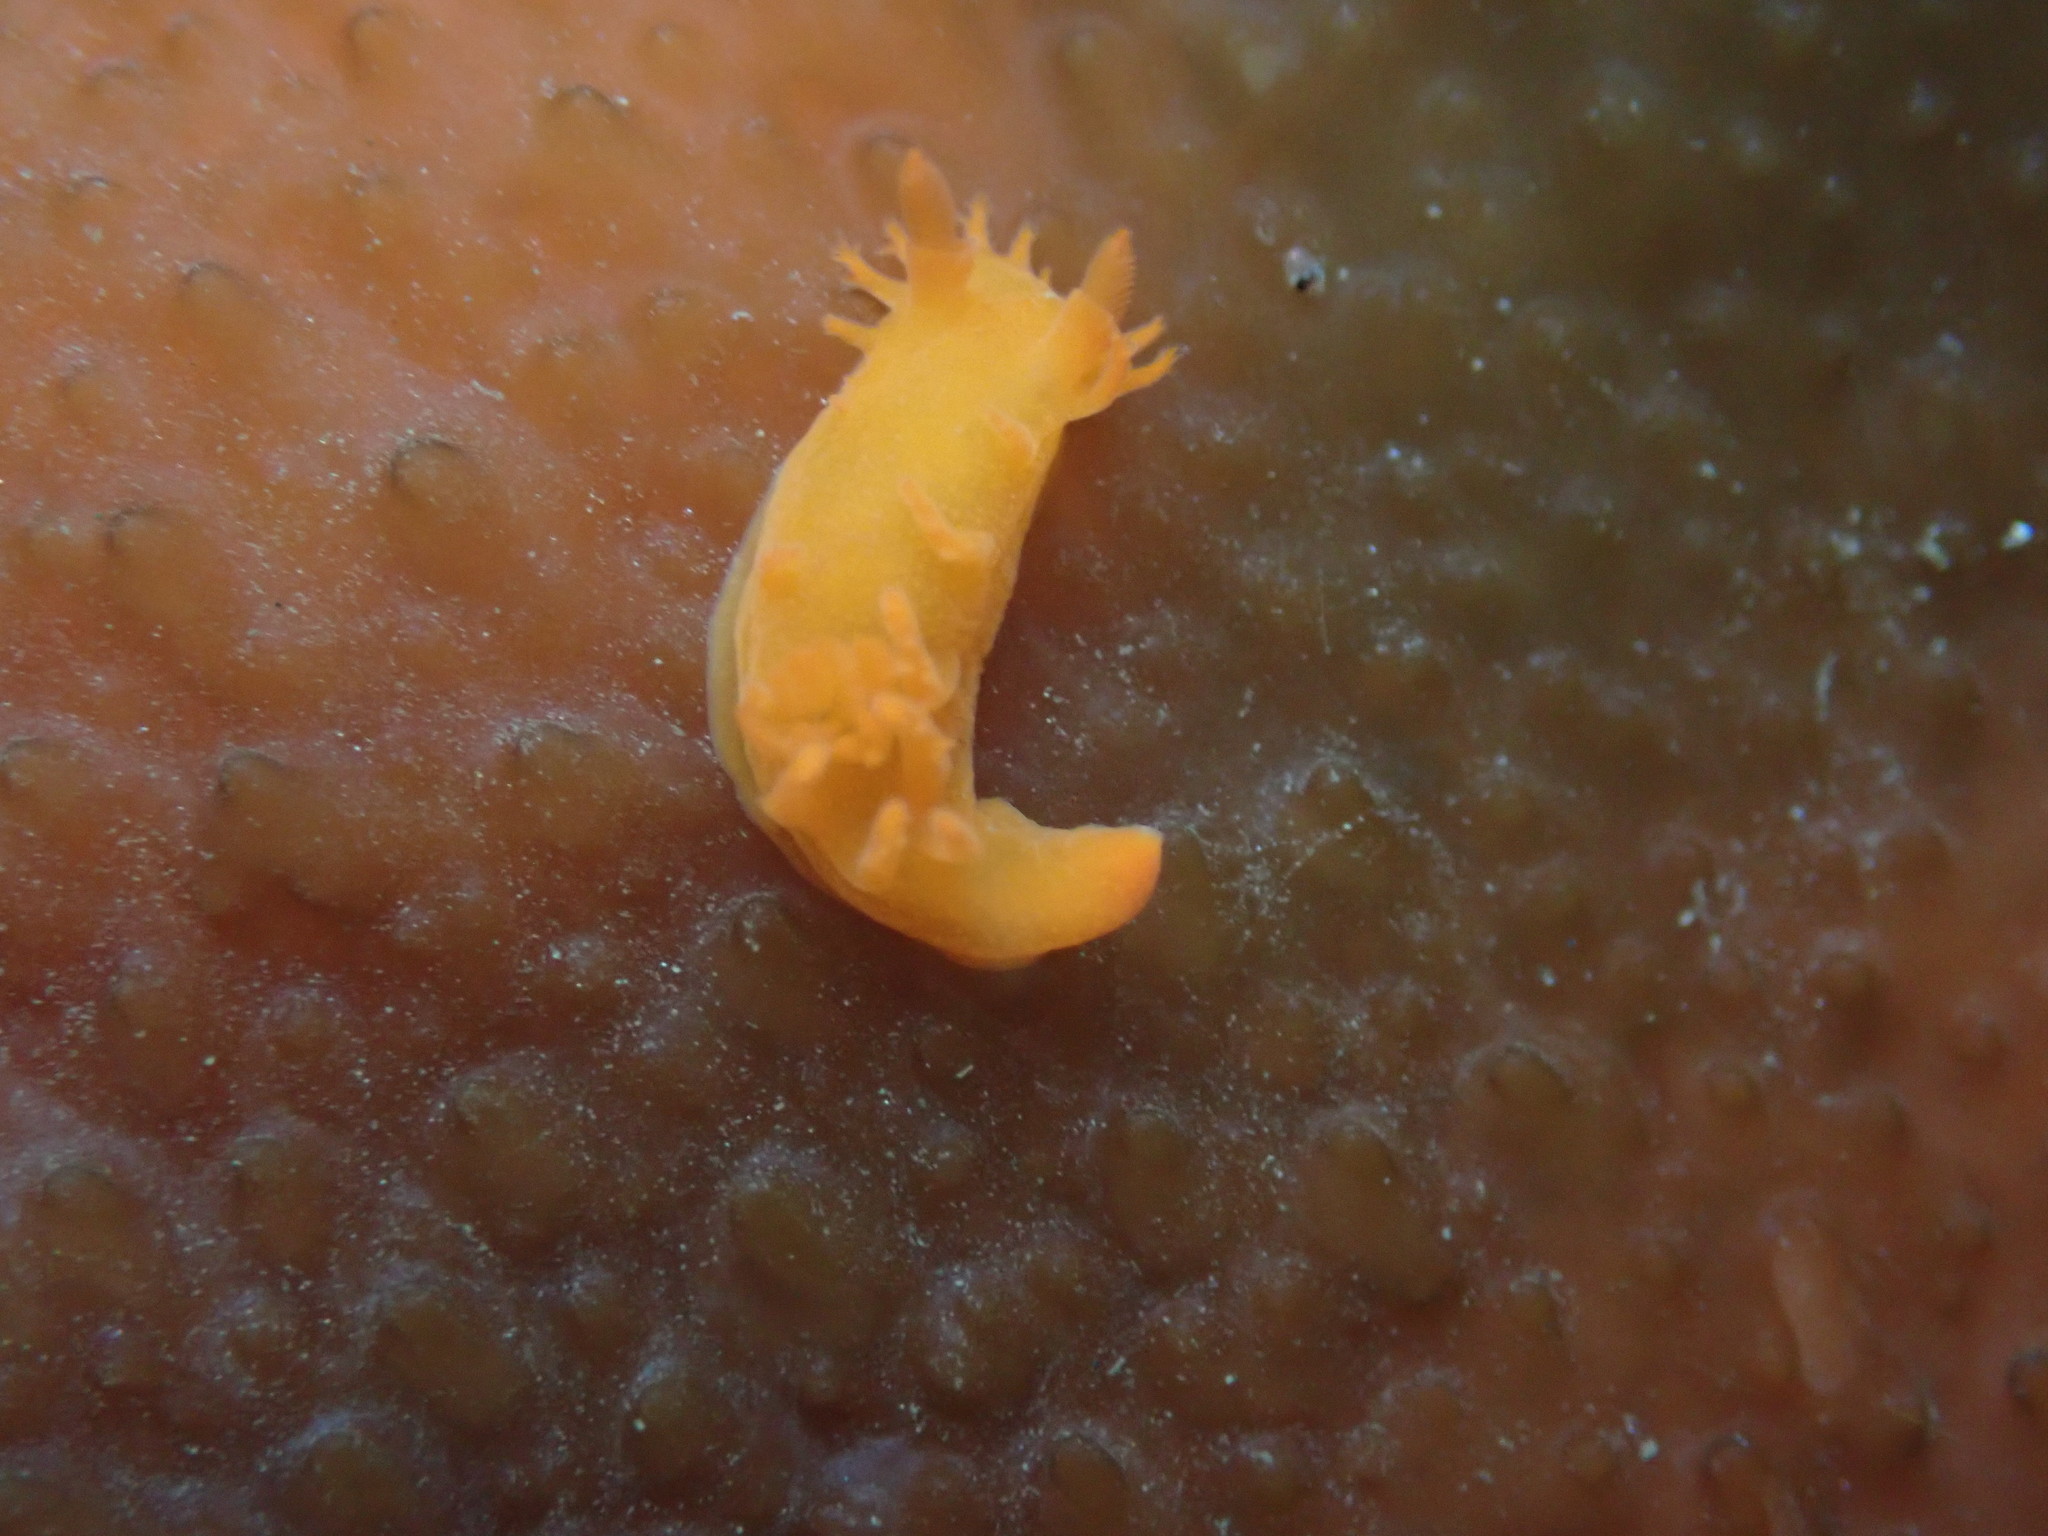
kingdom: Animalia
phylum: Mollusca
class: Gastropoda
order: Nudibranchia
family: Polyceridae
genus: Triopha
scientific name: Triopha maculata
